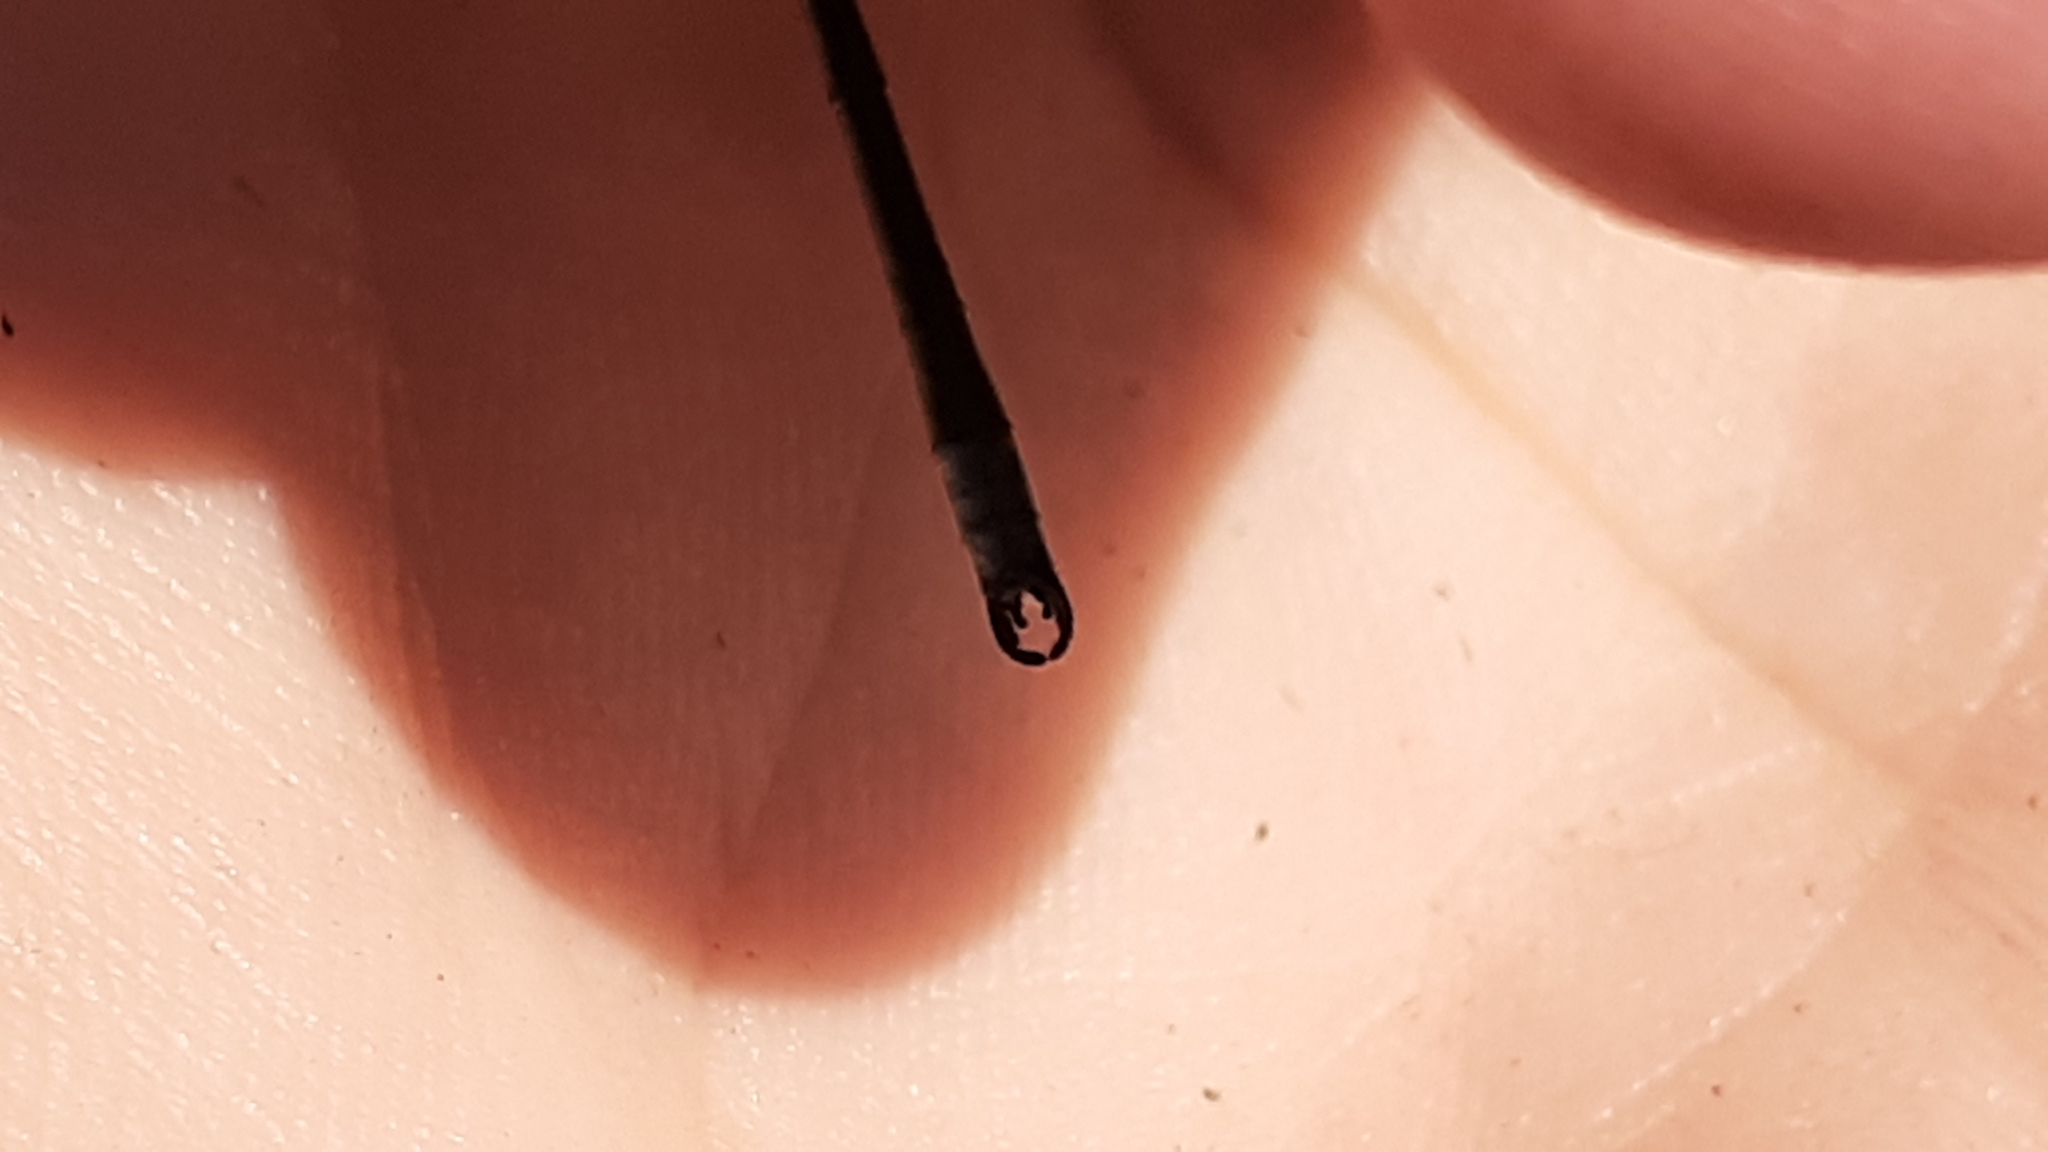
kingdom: Animalia
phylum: Arthropoda
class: Insecta
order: Odonata
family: Lestidae
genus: Lestes
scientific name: Lestes congener
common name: Spotted spreadwing
